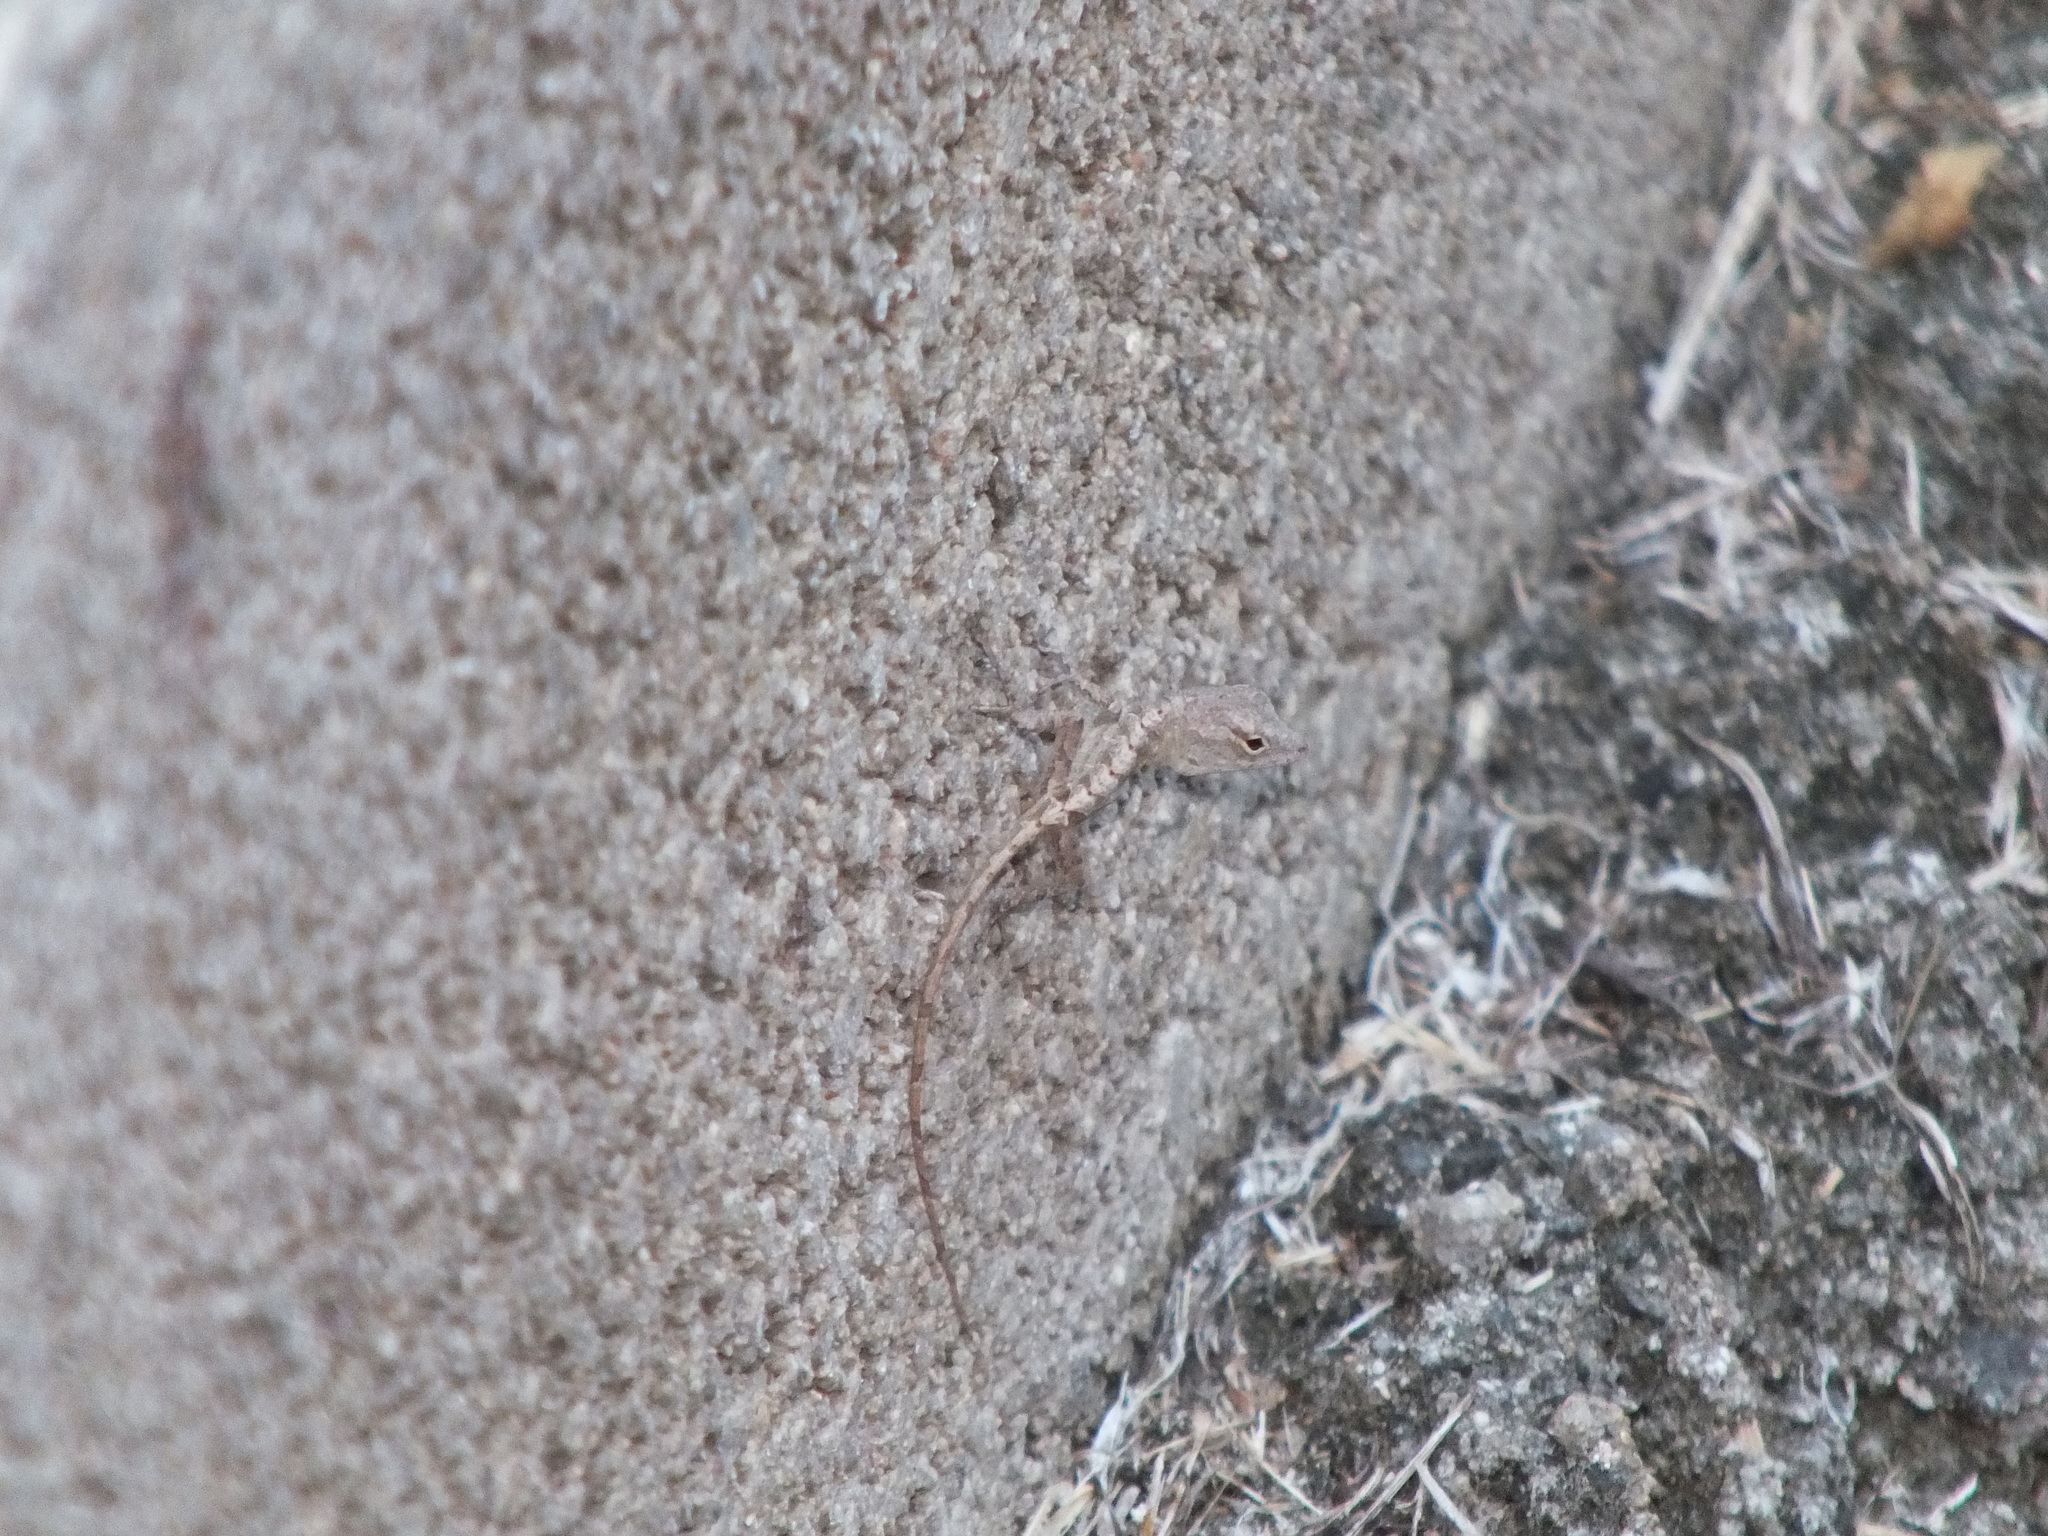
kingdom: Animalia
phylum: Chordata
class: Squamata
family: Dactyloidae
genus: Anolis
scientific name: Anolis sagrei
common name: Brown anole
